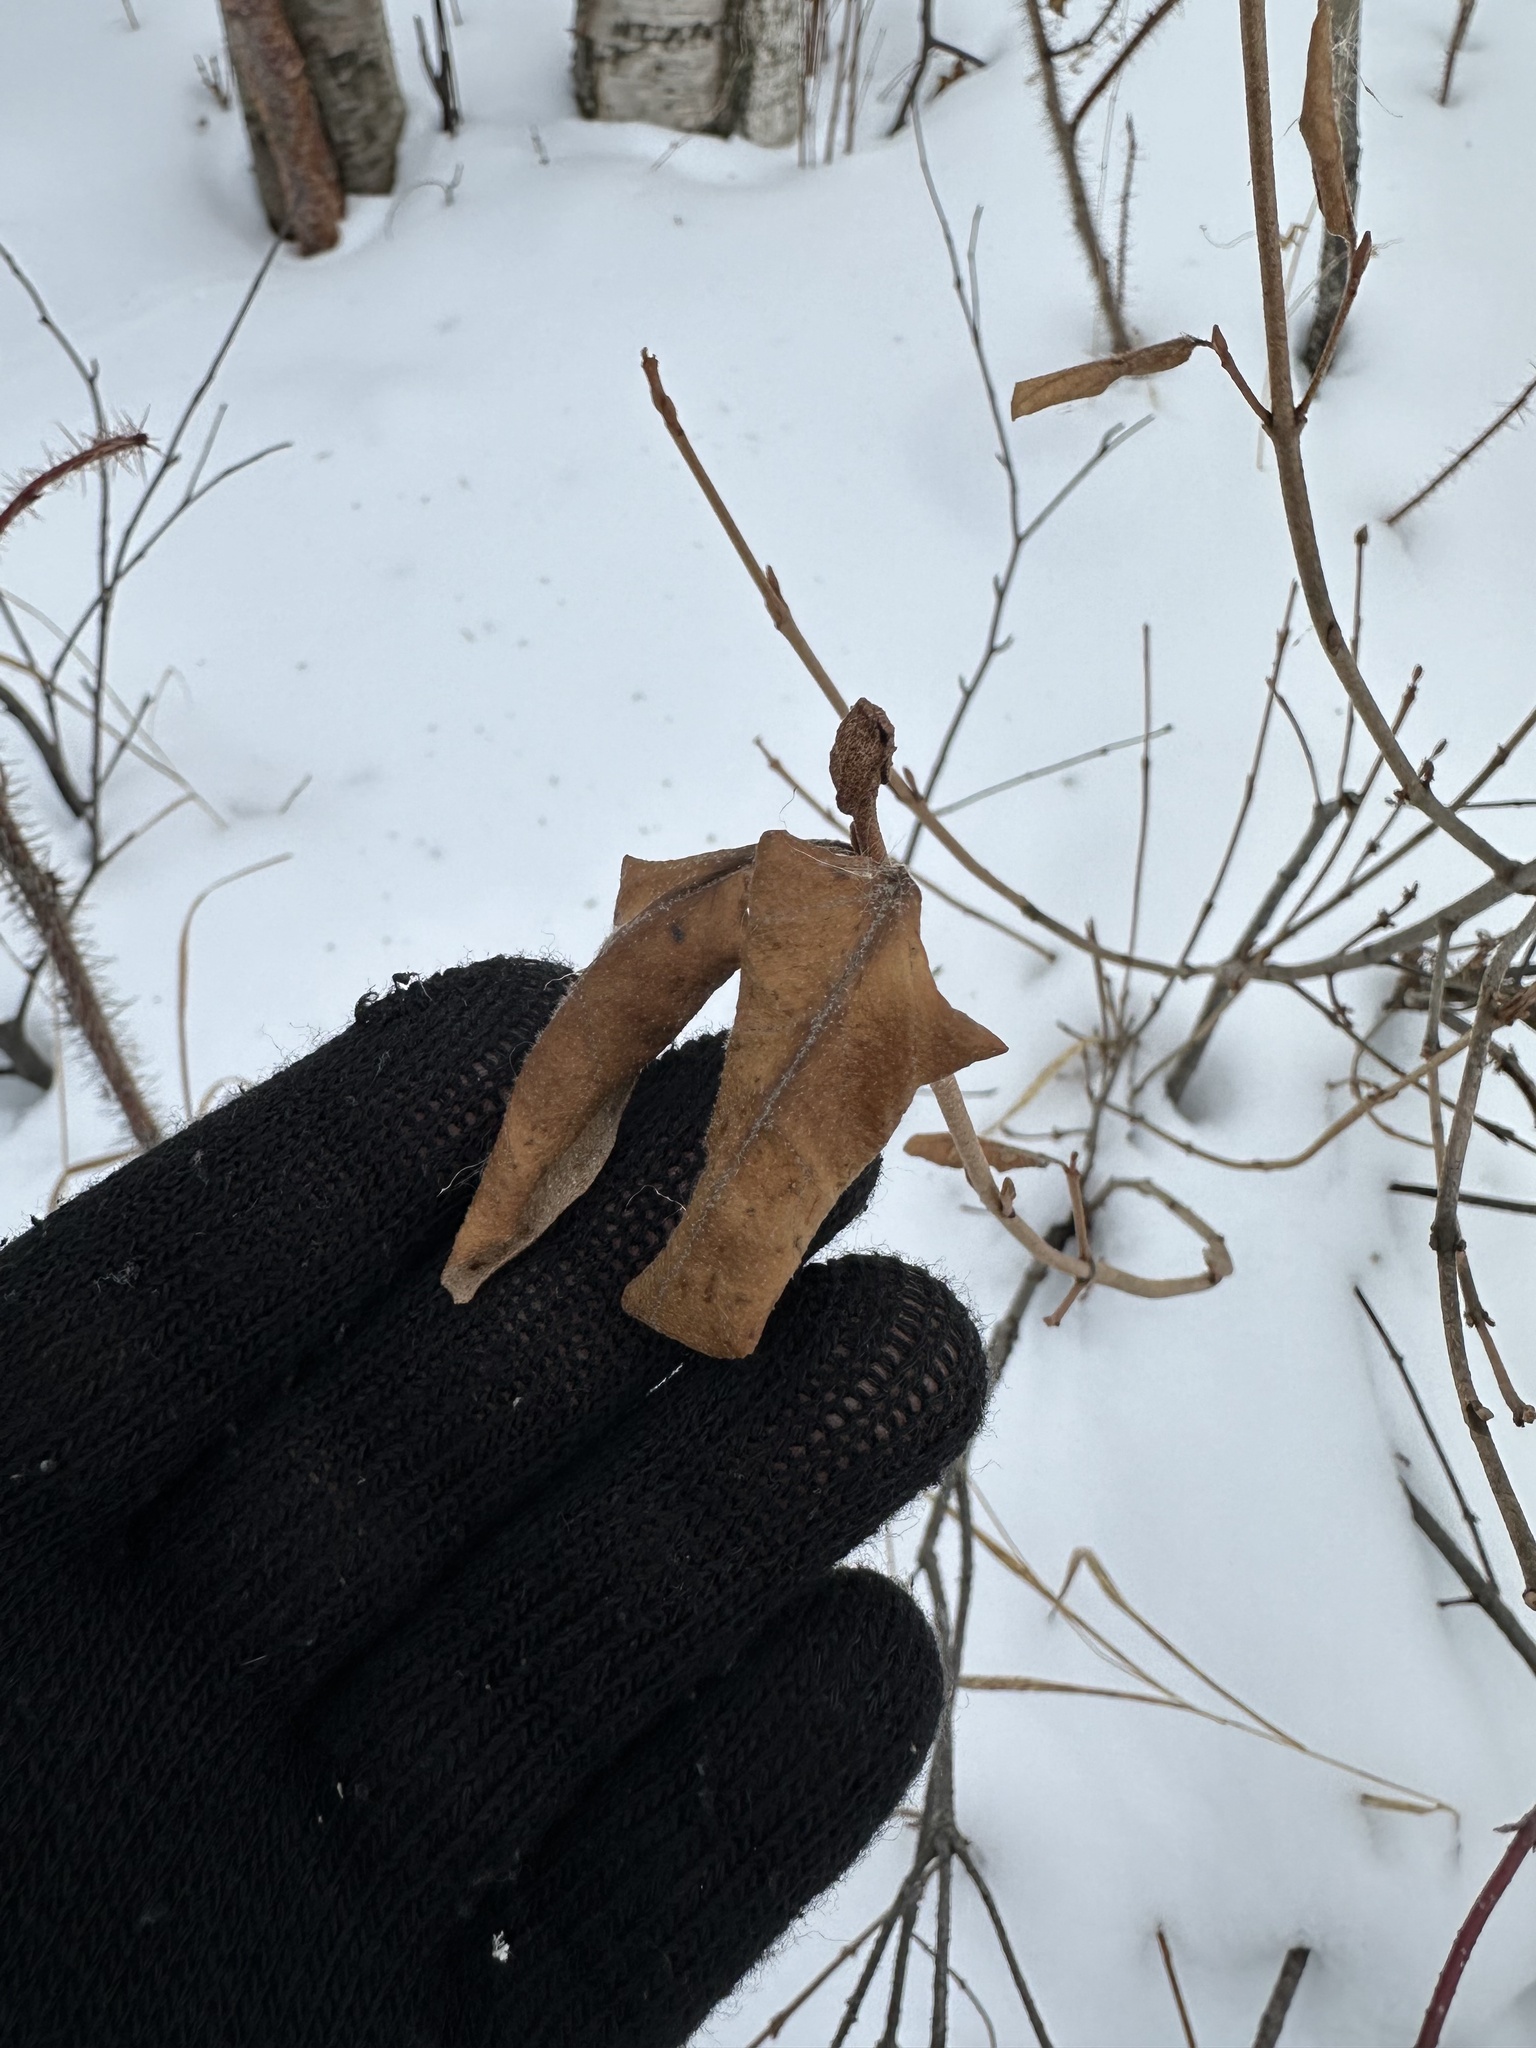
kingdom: Plantae
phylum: Tracheophyta
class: Magnoliopsida
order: Rosales
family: Elaeagnaceae
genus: Shepherdia
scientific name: Shepherdia canadensis
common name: Soapberry
